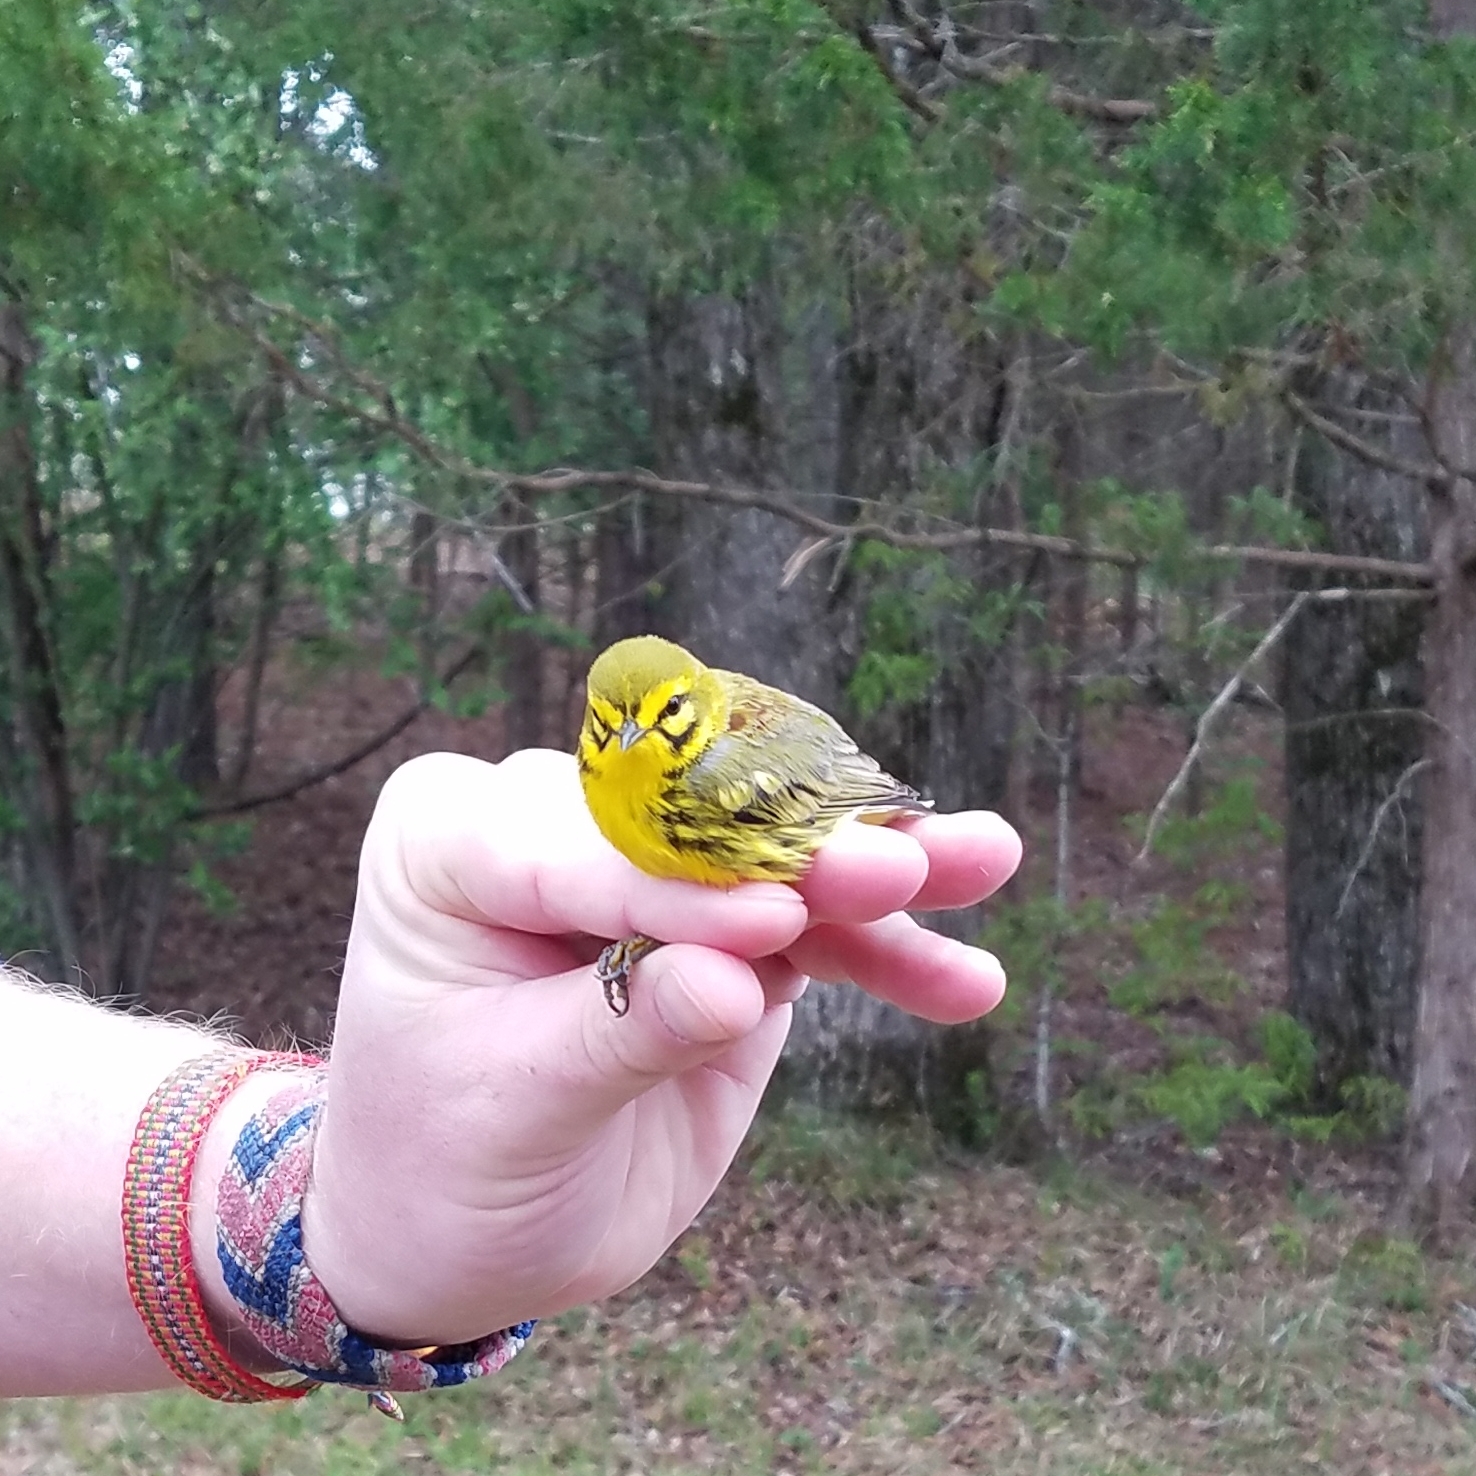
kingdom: Animalia
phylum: Chordata
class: Aves
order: Passeriformes
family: Parulidae
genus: Setophaga
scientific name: Setophaga discolor
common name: Prairie warbler
